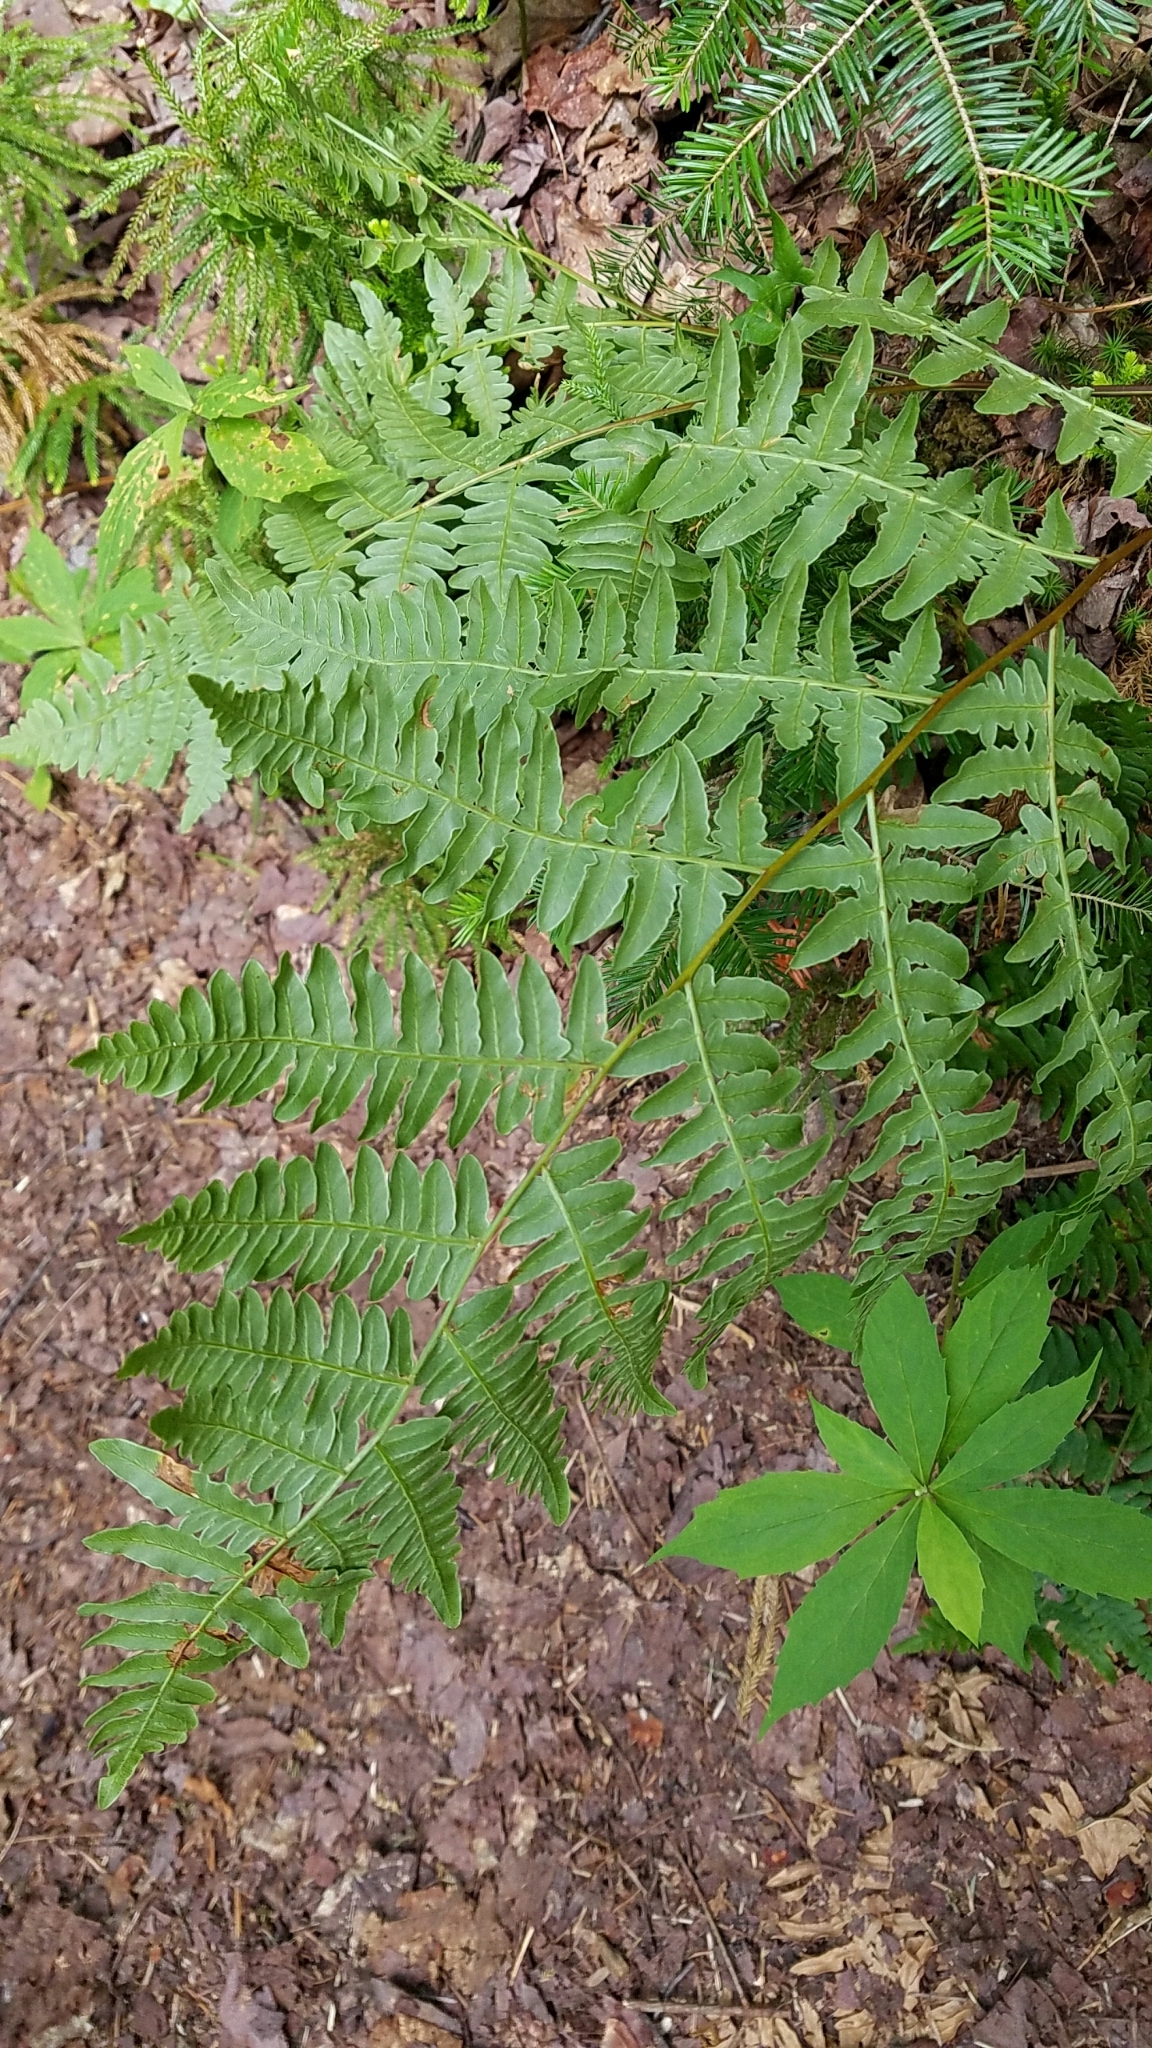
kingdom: Plantae
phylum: Tracheophyta
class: Polypodiopsida
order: Polypodiales
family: Dennstaedtiaceae
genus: Pteridium
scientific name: Pteridium aquilinum
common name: Bracken
